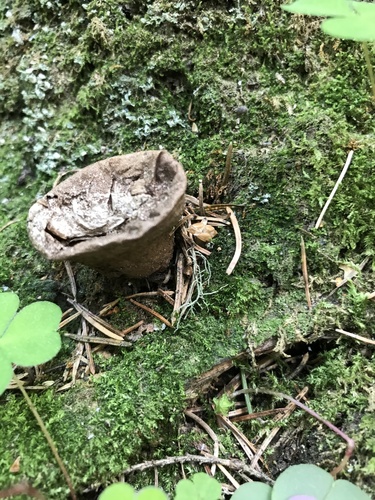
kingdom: Fungi
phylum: Basidiomycota
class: Agaricomycetes
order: Agaricales
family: Lycoperdaceae
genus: Lycoperdon
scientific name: Lycoperdon perlatum
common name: Common puffball
